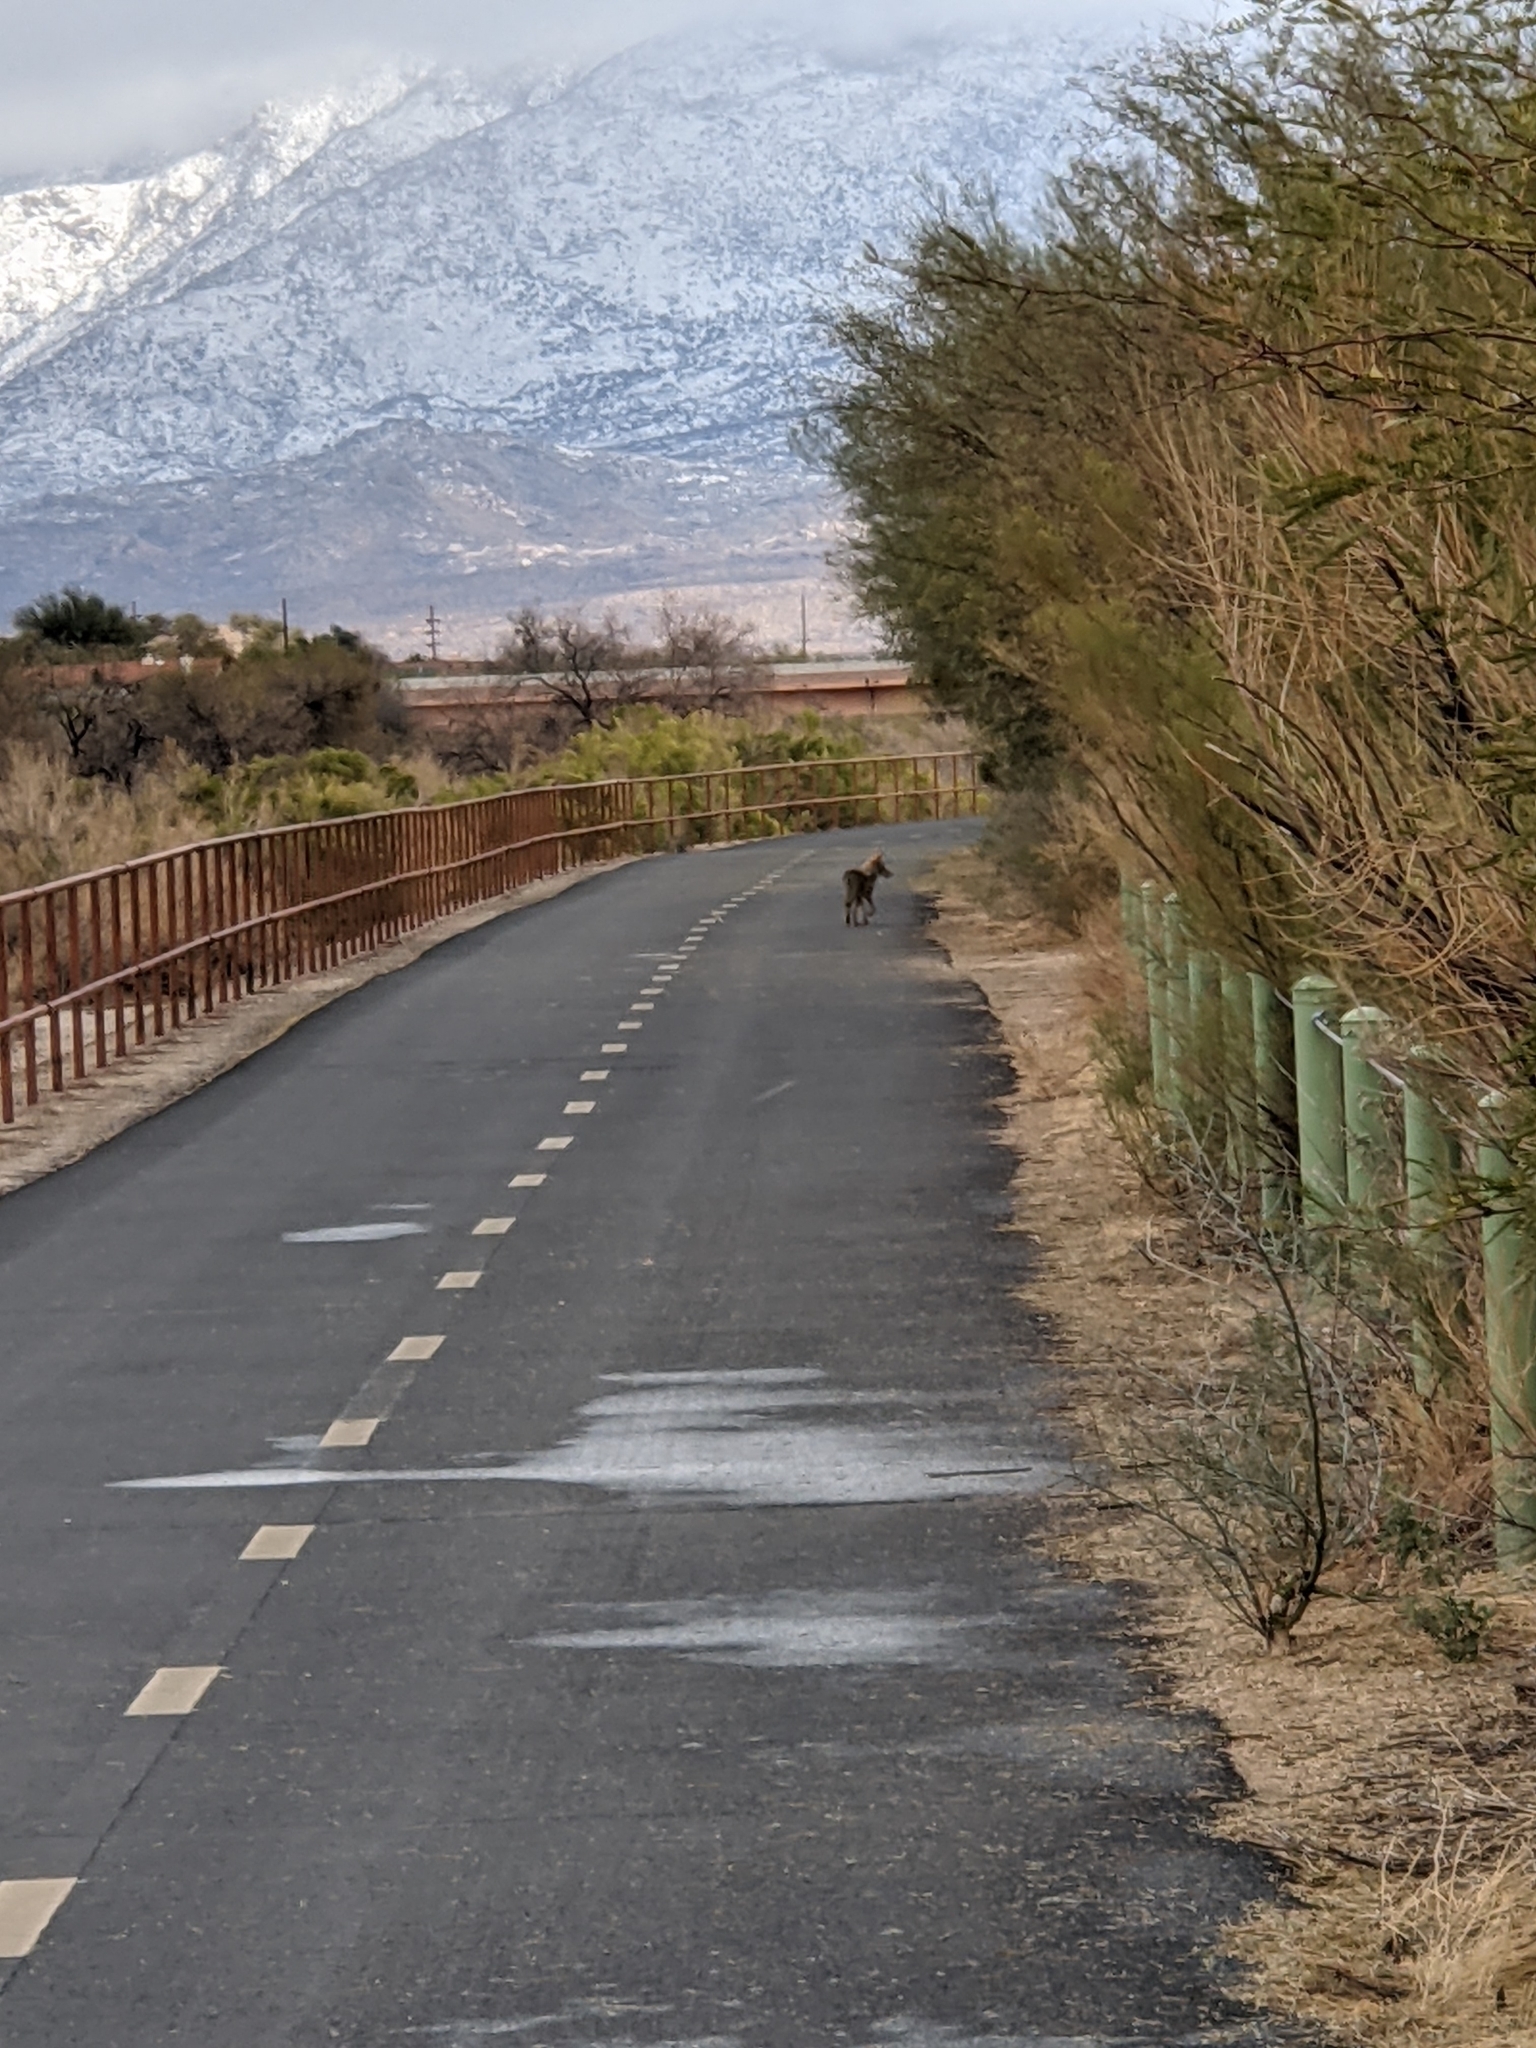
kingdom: Animalia
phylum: Chordata
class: Mammalia
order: Carnivora
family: Canidae
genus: Canis
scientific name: Canis latrans
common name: Coyote
